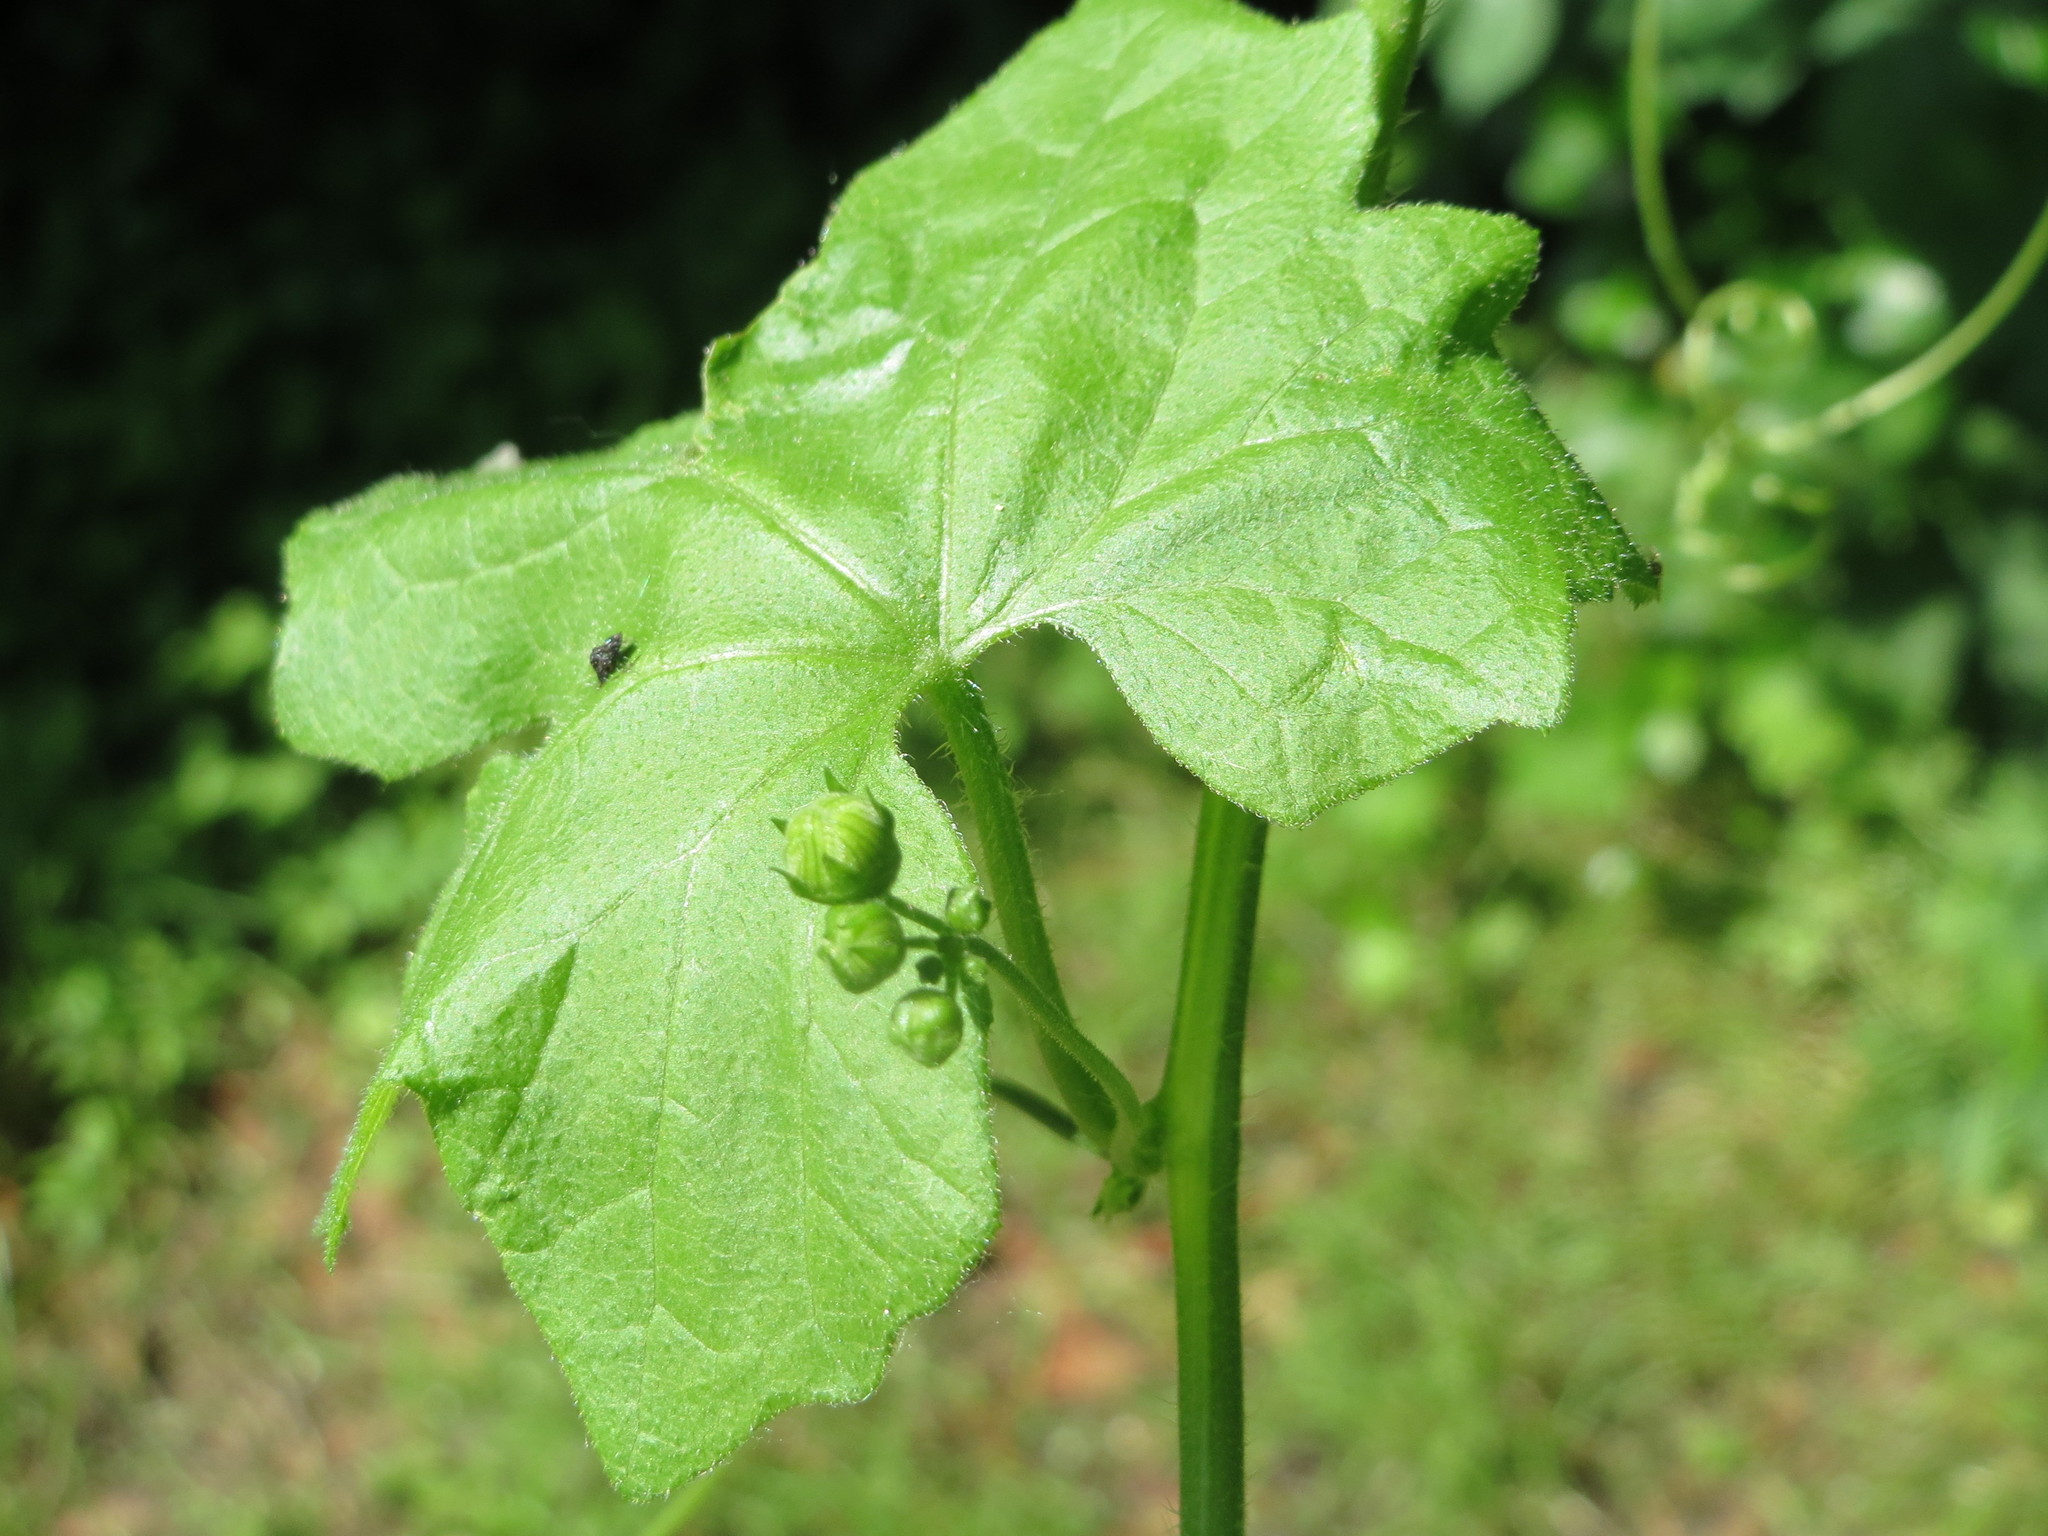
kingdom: Plantae
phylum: Tracheophyta
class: Magnoliopsida
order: Cucurbitales
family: Cucurbitaceae
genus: Bryonia
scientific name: Bryonia dioica
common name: White bryony
